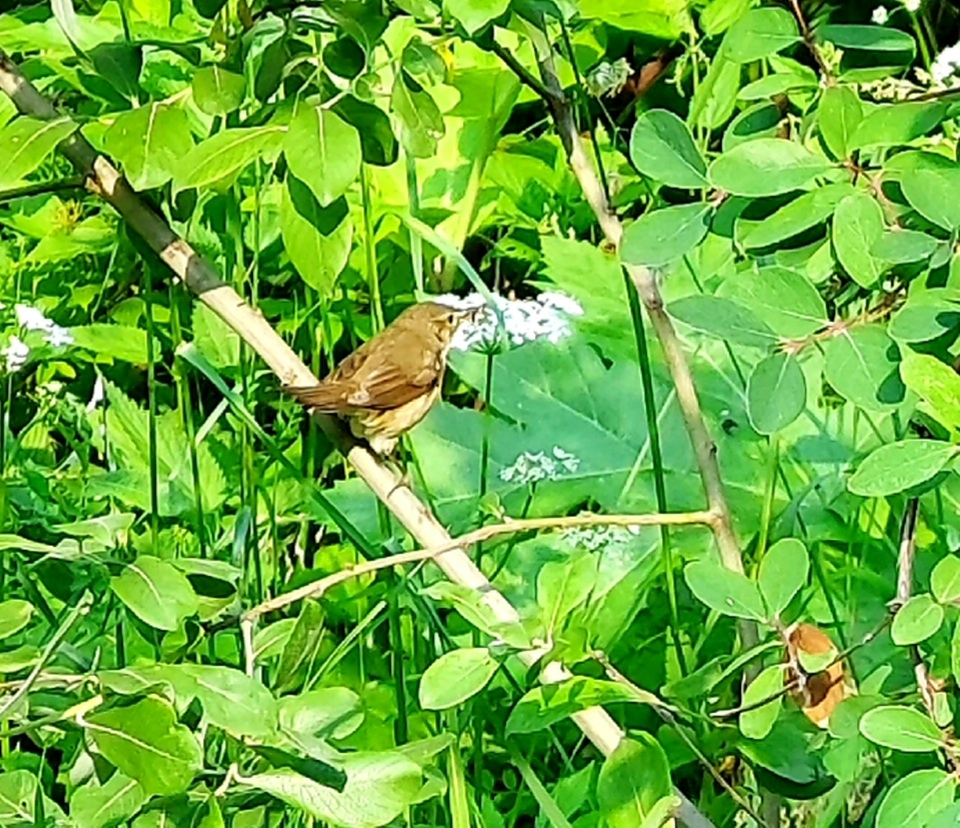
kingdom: Animalia
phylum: Chordata
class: Aves
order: Passeriformes
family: Acrocephalidae
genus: Acrocephalus
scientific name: Acrocephalus dumetorum
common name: Blyth's reed warbler
